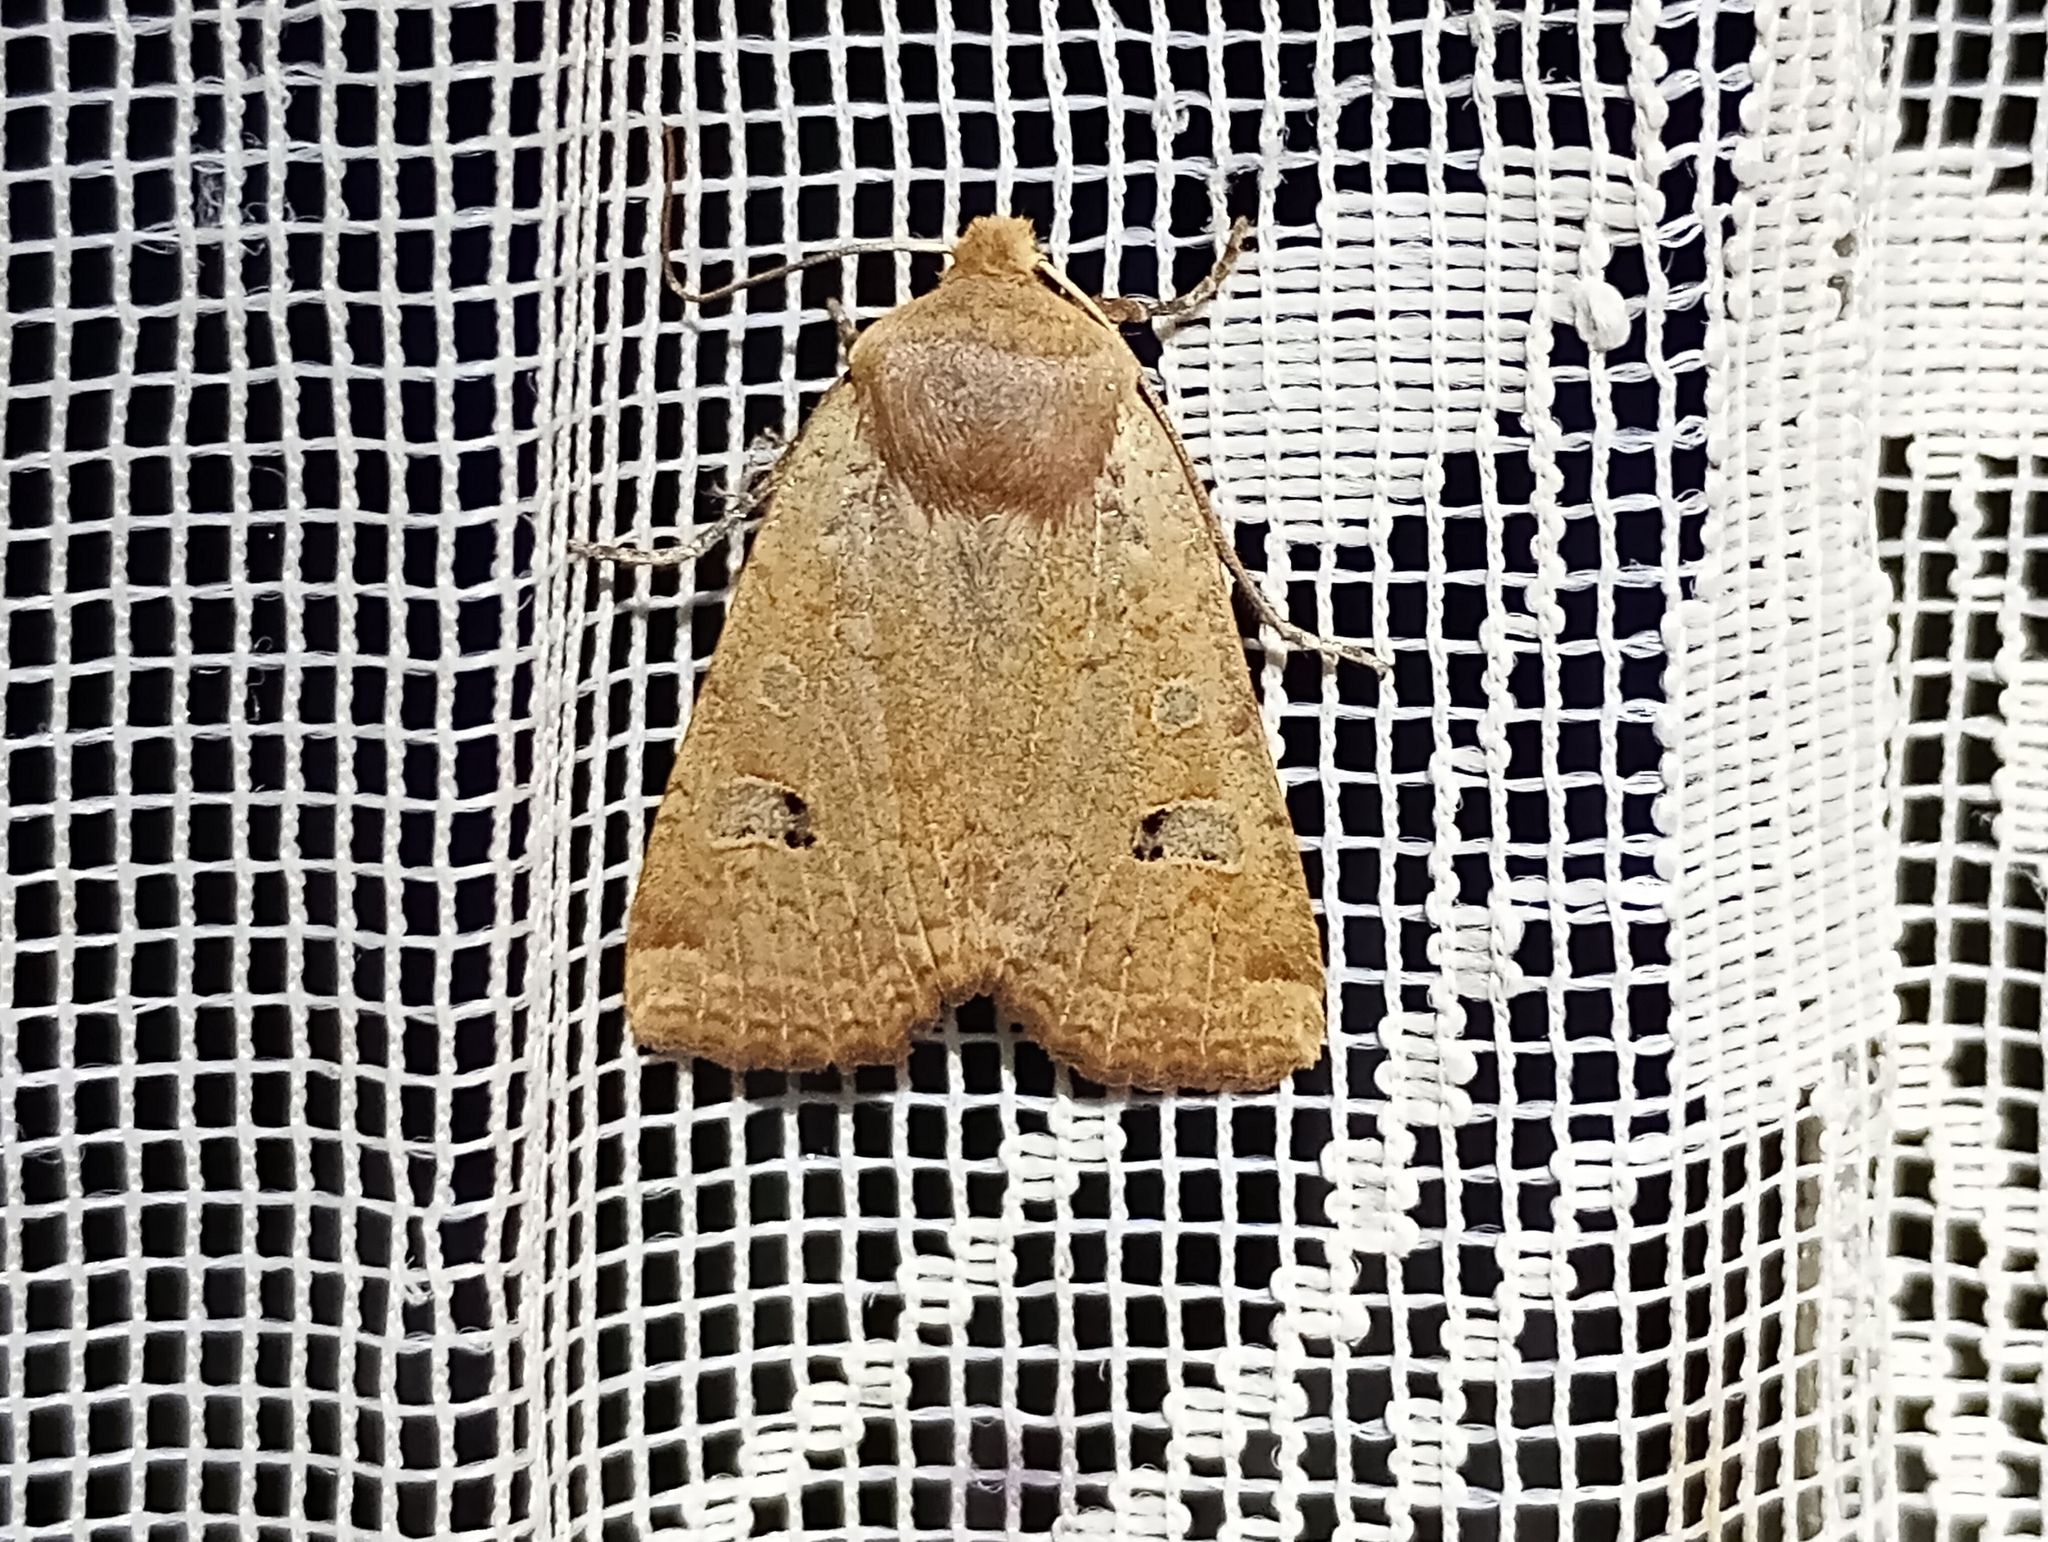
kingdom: Animalia
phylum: Arthropoda
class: Insecta
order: Lepidoptera
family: Noctuidae
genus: Conistra
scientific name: Conistra erythrocephala
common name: Red-headed chestnut
